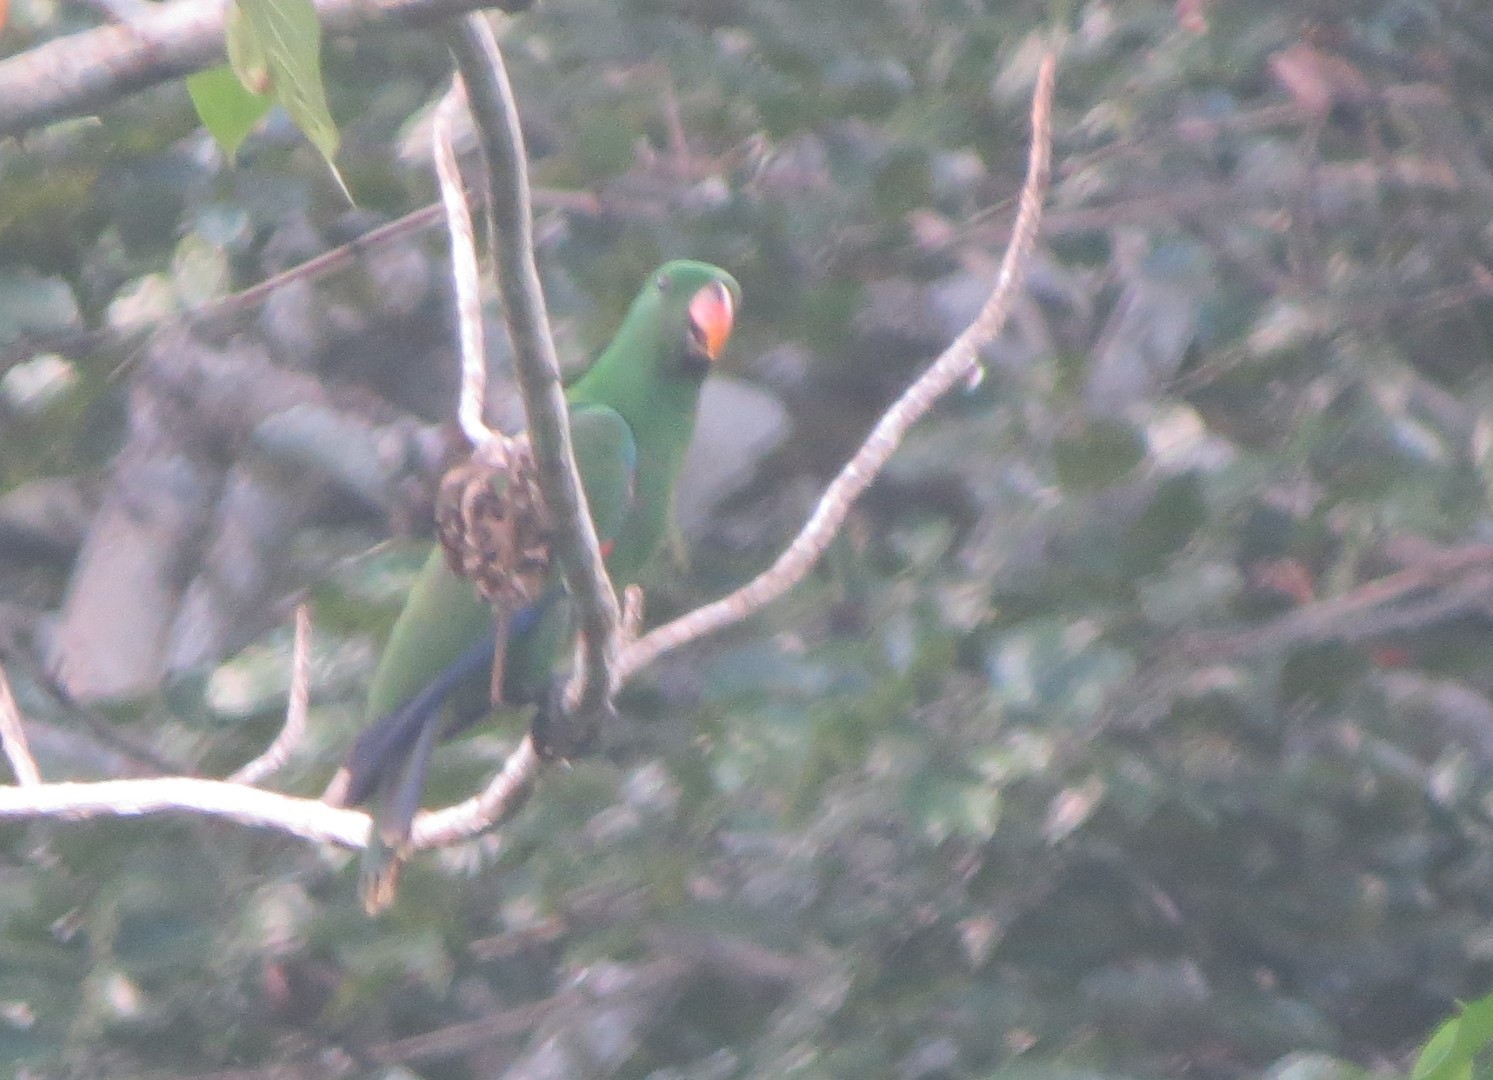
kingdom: Animalia
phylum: Chordata
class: Aves
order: Psittaciformes
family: Psittacidae
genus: Eclectus
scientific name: Eclectus roratus
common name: Eclectus parrot
